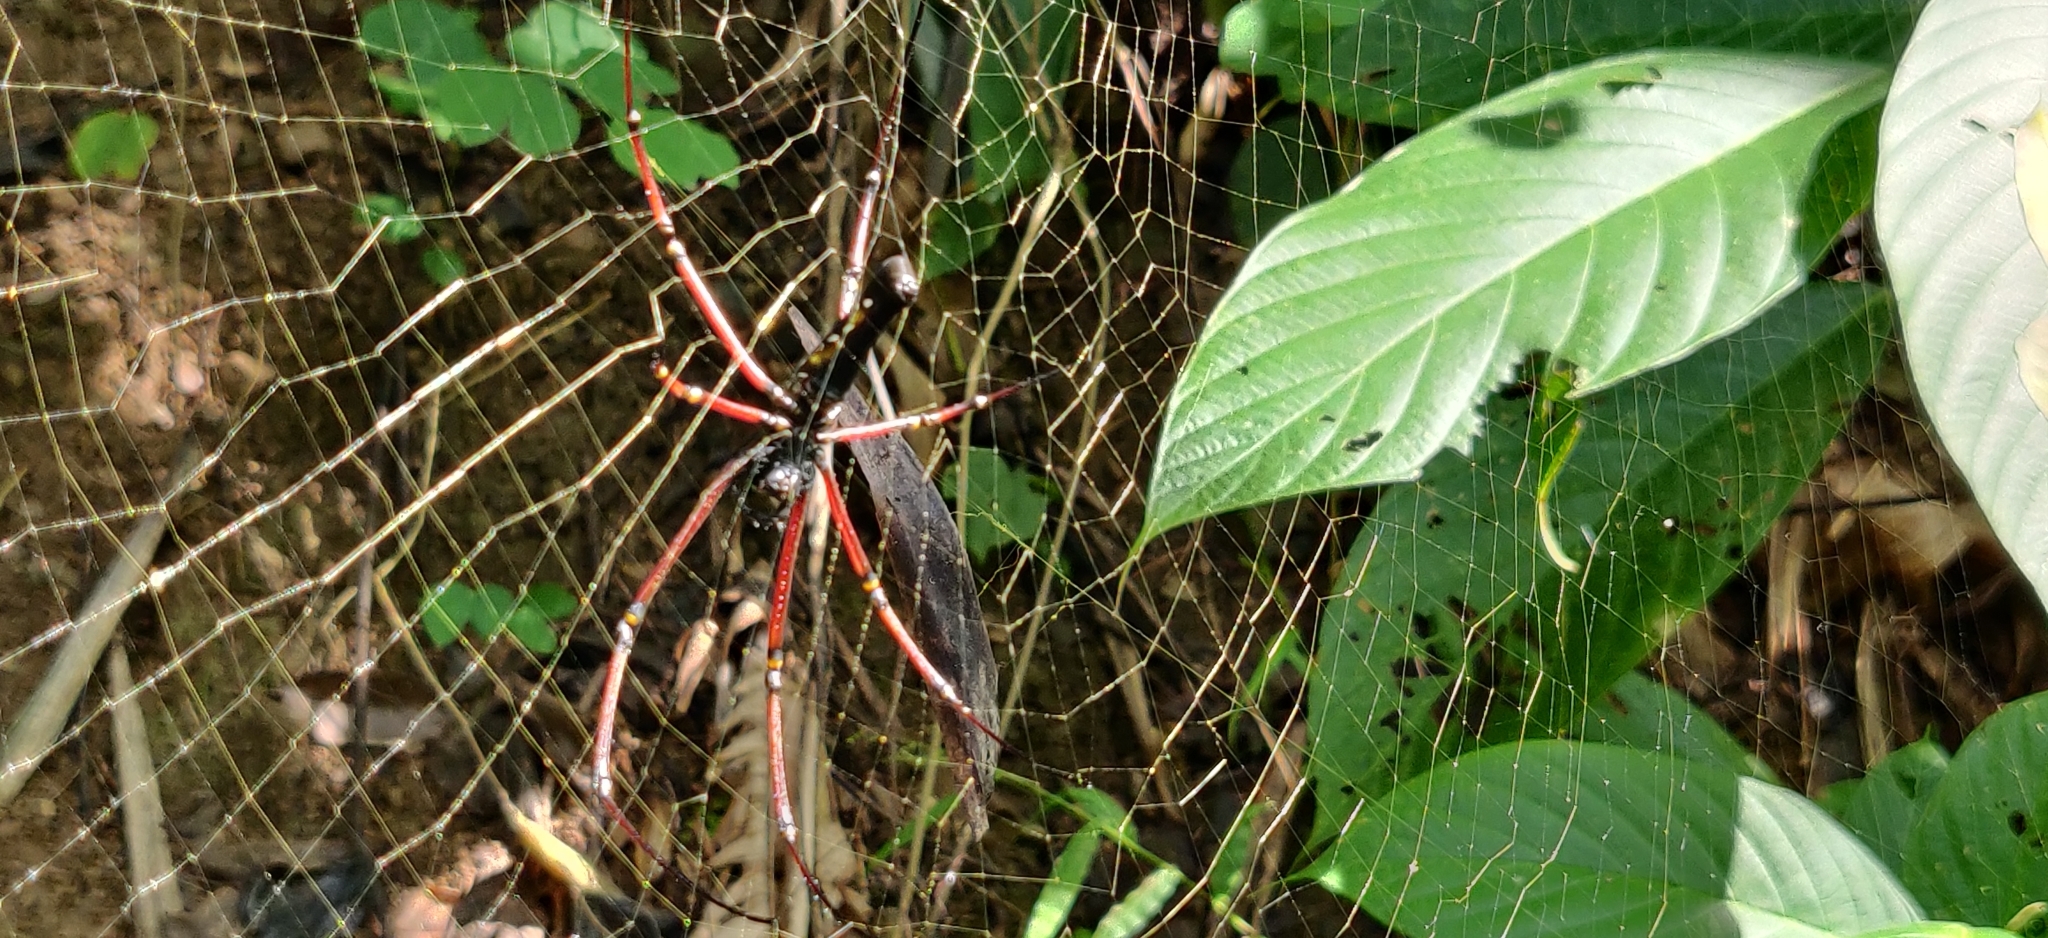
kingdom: Animalia
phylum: Arthropoda
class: Arachnida
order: Araneae
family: Araneidae
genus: Nephila
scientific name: Nephila kuhli
